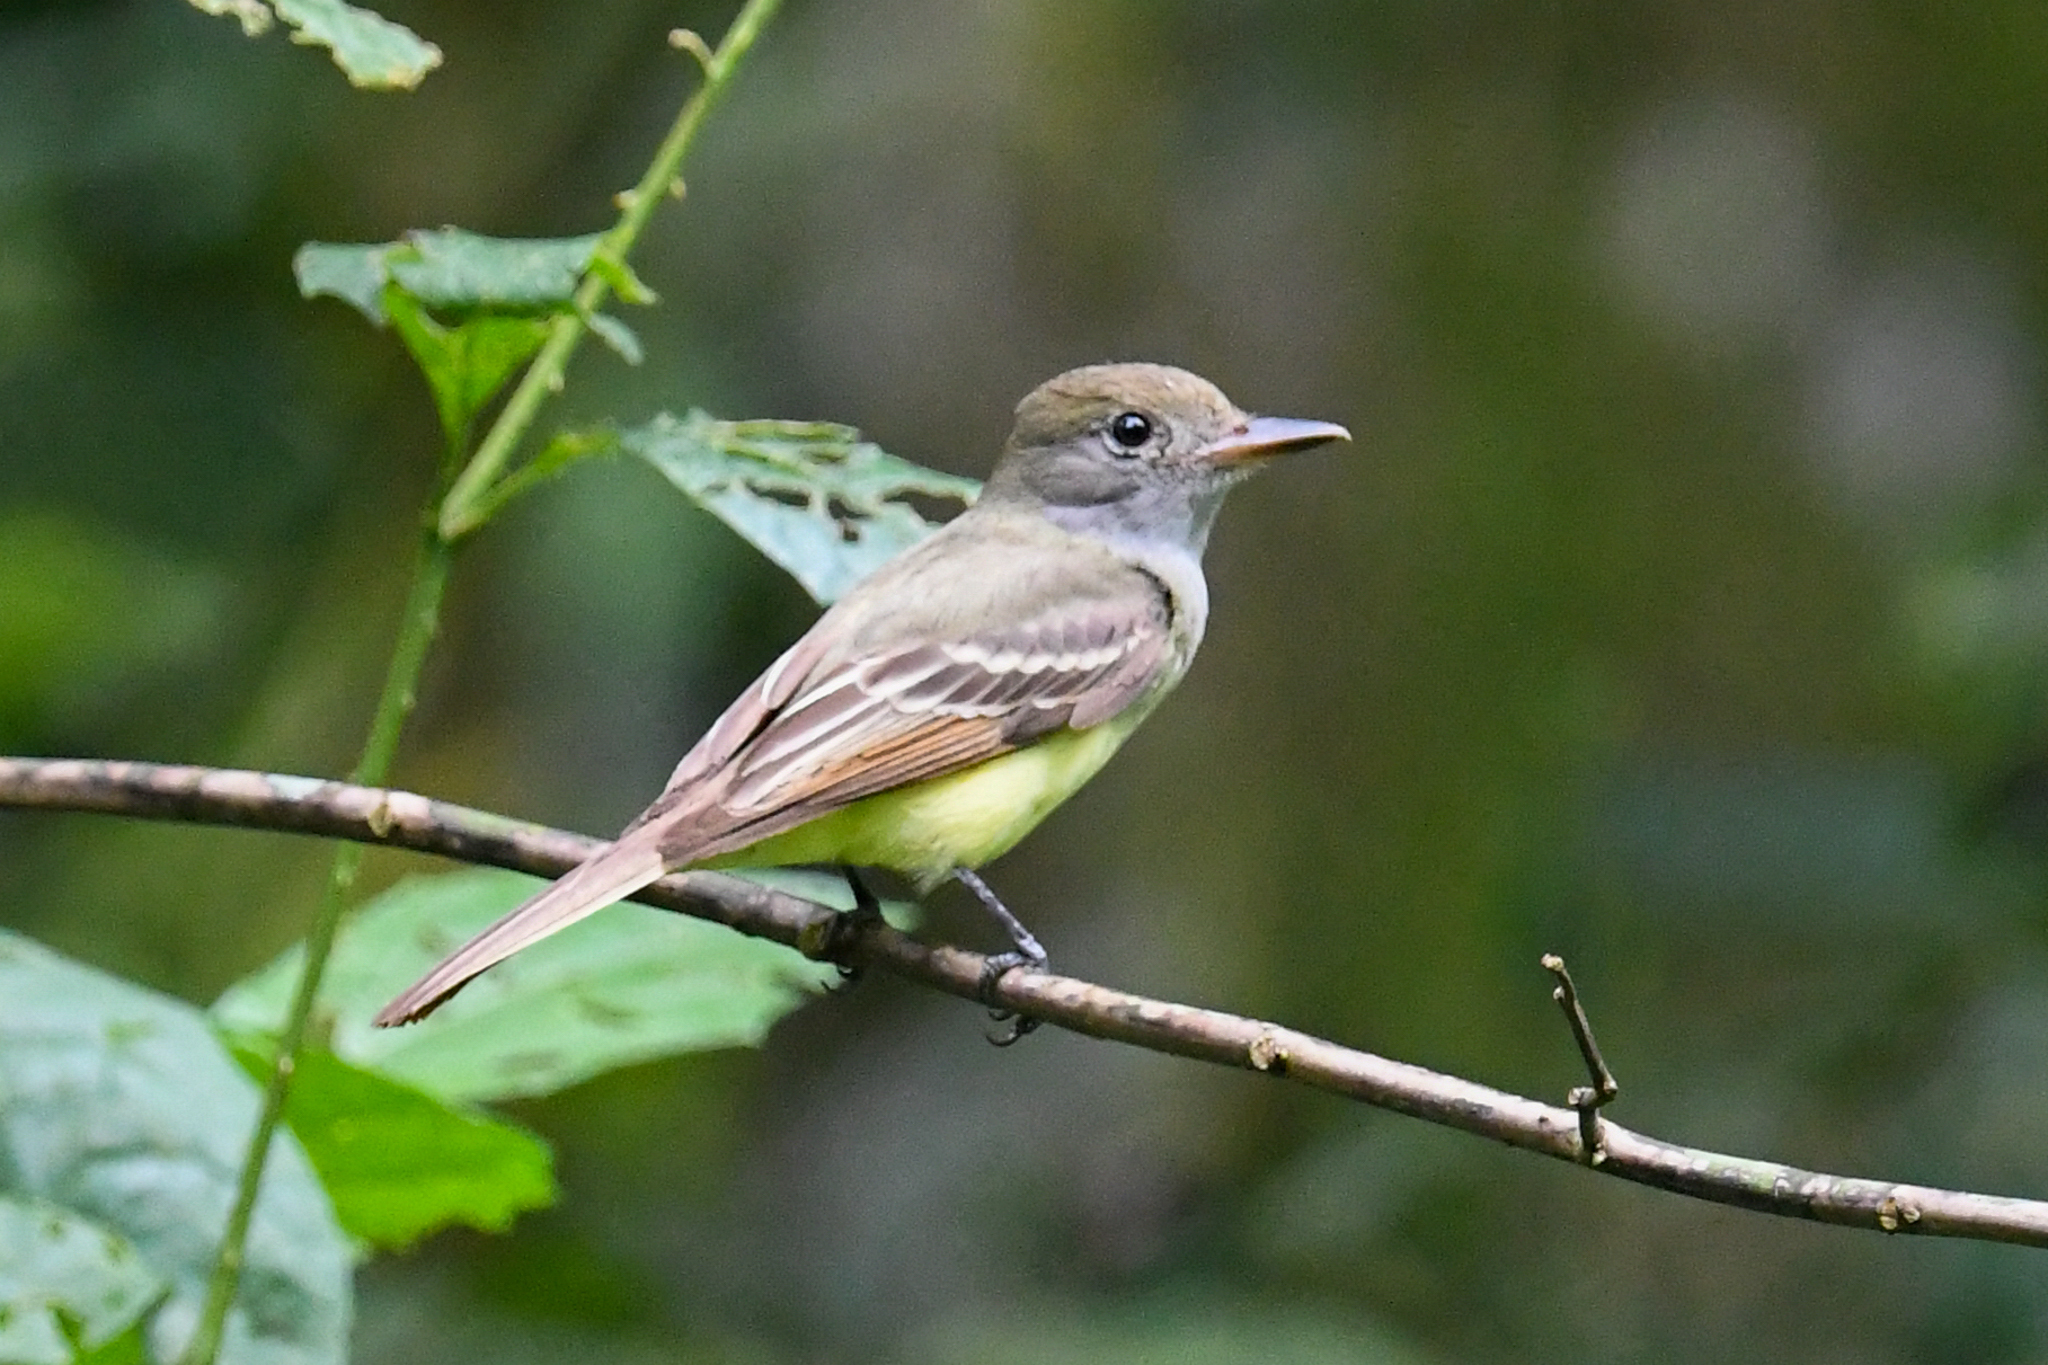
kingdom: Animalia
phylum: Chordata
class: Aves
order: Passeriformes
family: Tyrannidae
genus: Myiarchus
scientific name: Myiarchus crinitus
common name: Great crested flycatcher
